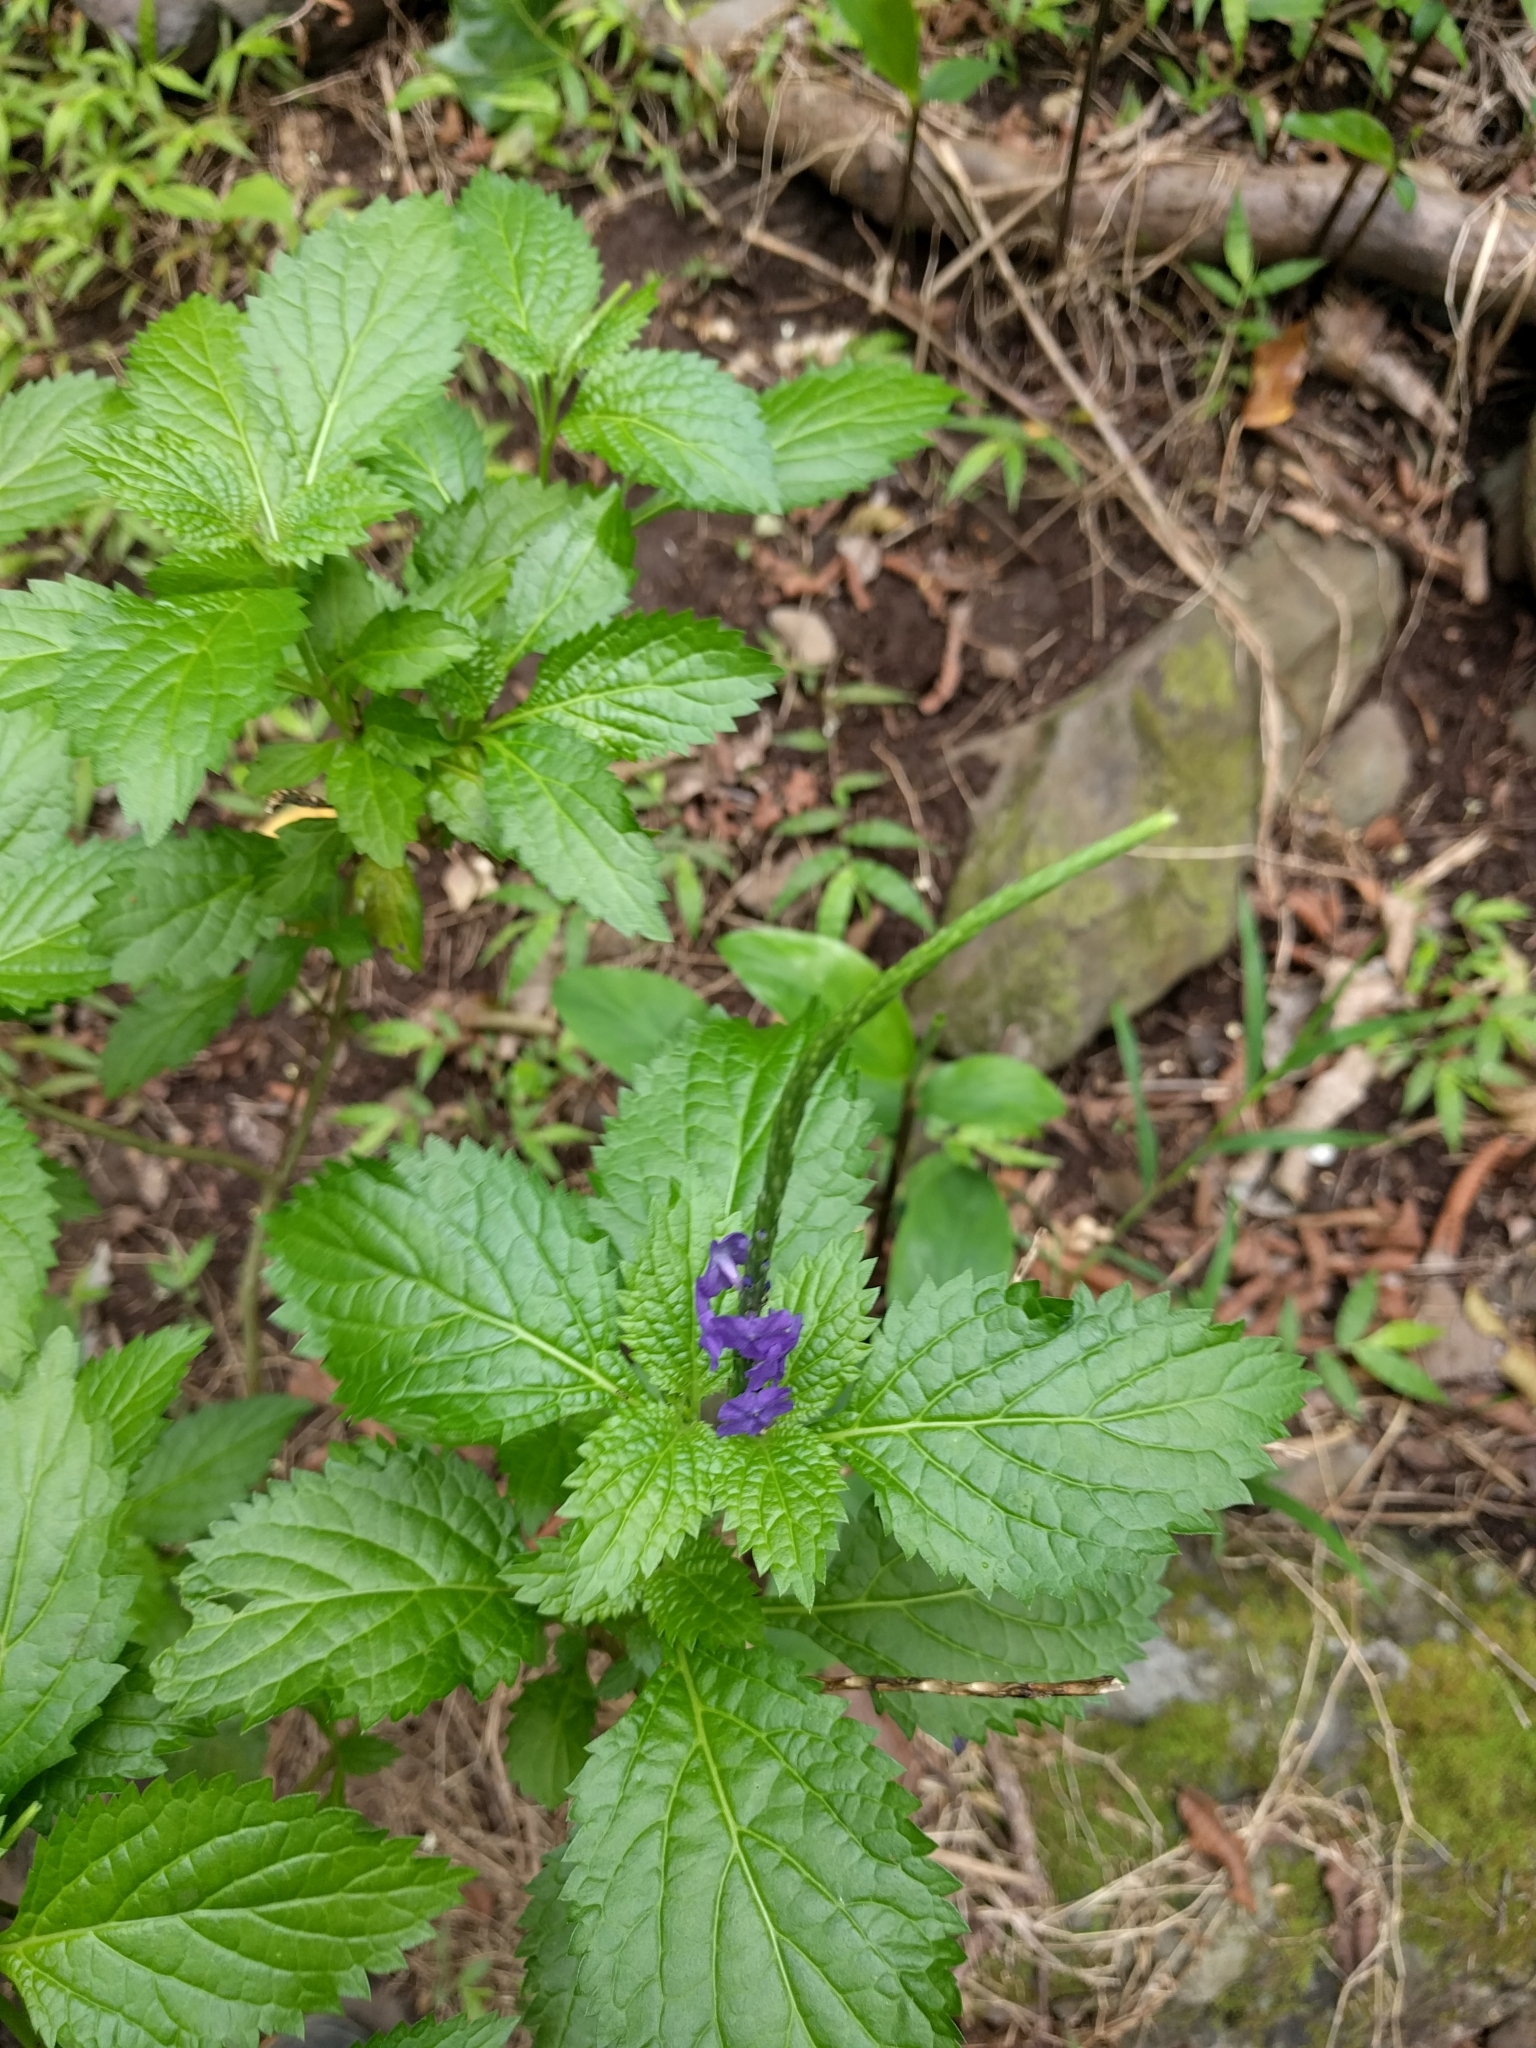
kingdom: Plantae
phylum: Tracheophyta
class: Magnoliopsida
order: Lamiales
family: Verbenaceae
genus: Stachytarpheta
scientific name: Stachytarpheta cayennensis
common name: Cayenne porterweed
